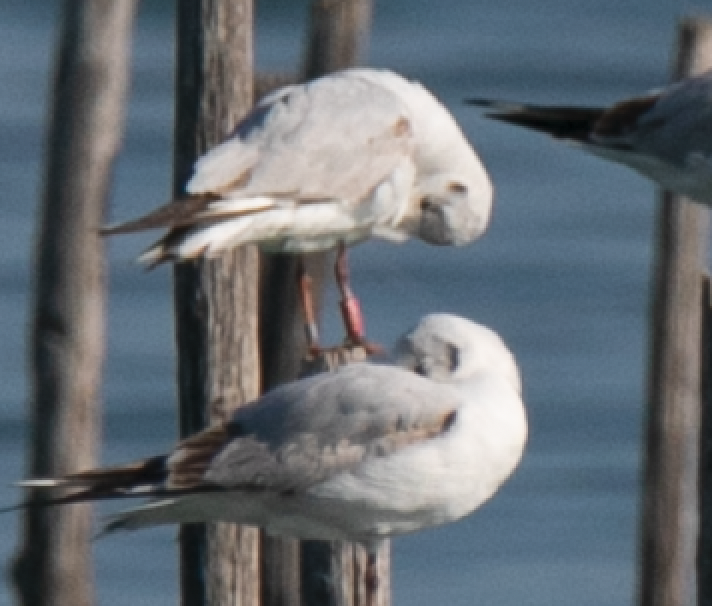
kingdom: Animalia
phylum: Chordata
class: Aves
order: Charadriiformes
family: Laridae
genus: Chroicocephalus
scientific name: Chroicocephalus ridibundus
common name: Black-headed gull
